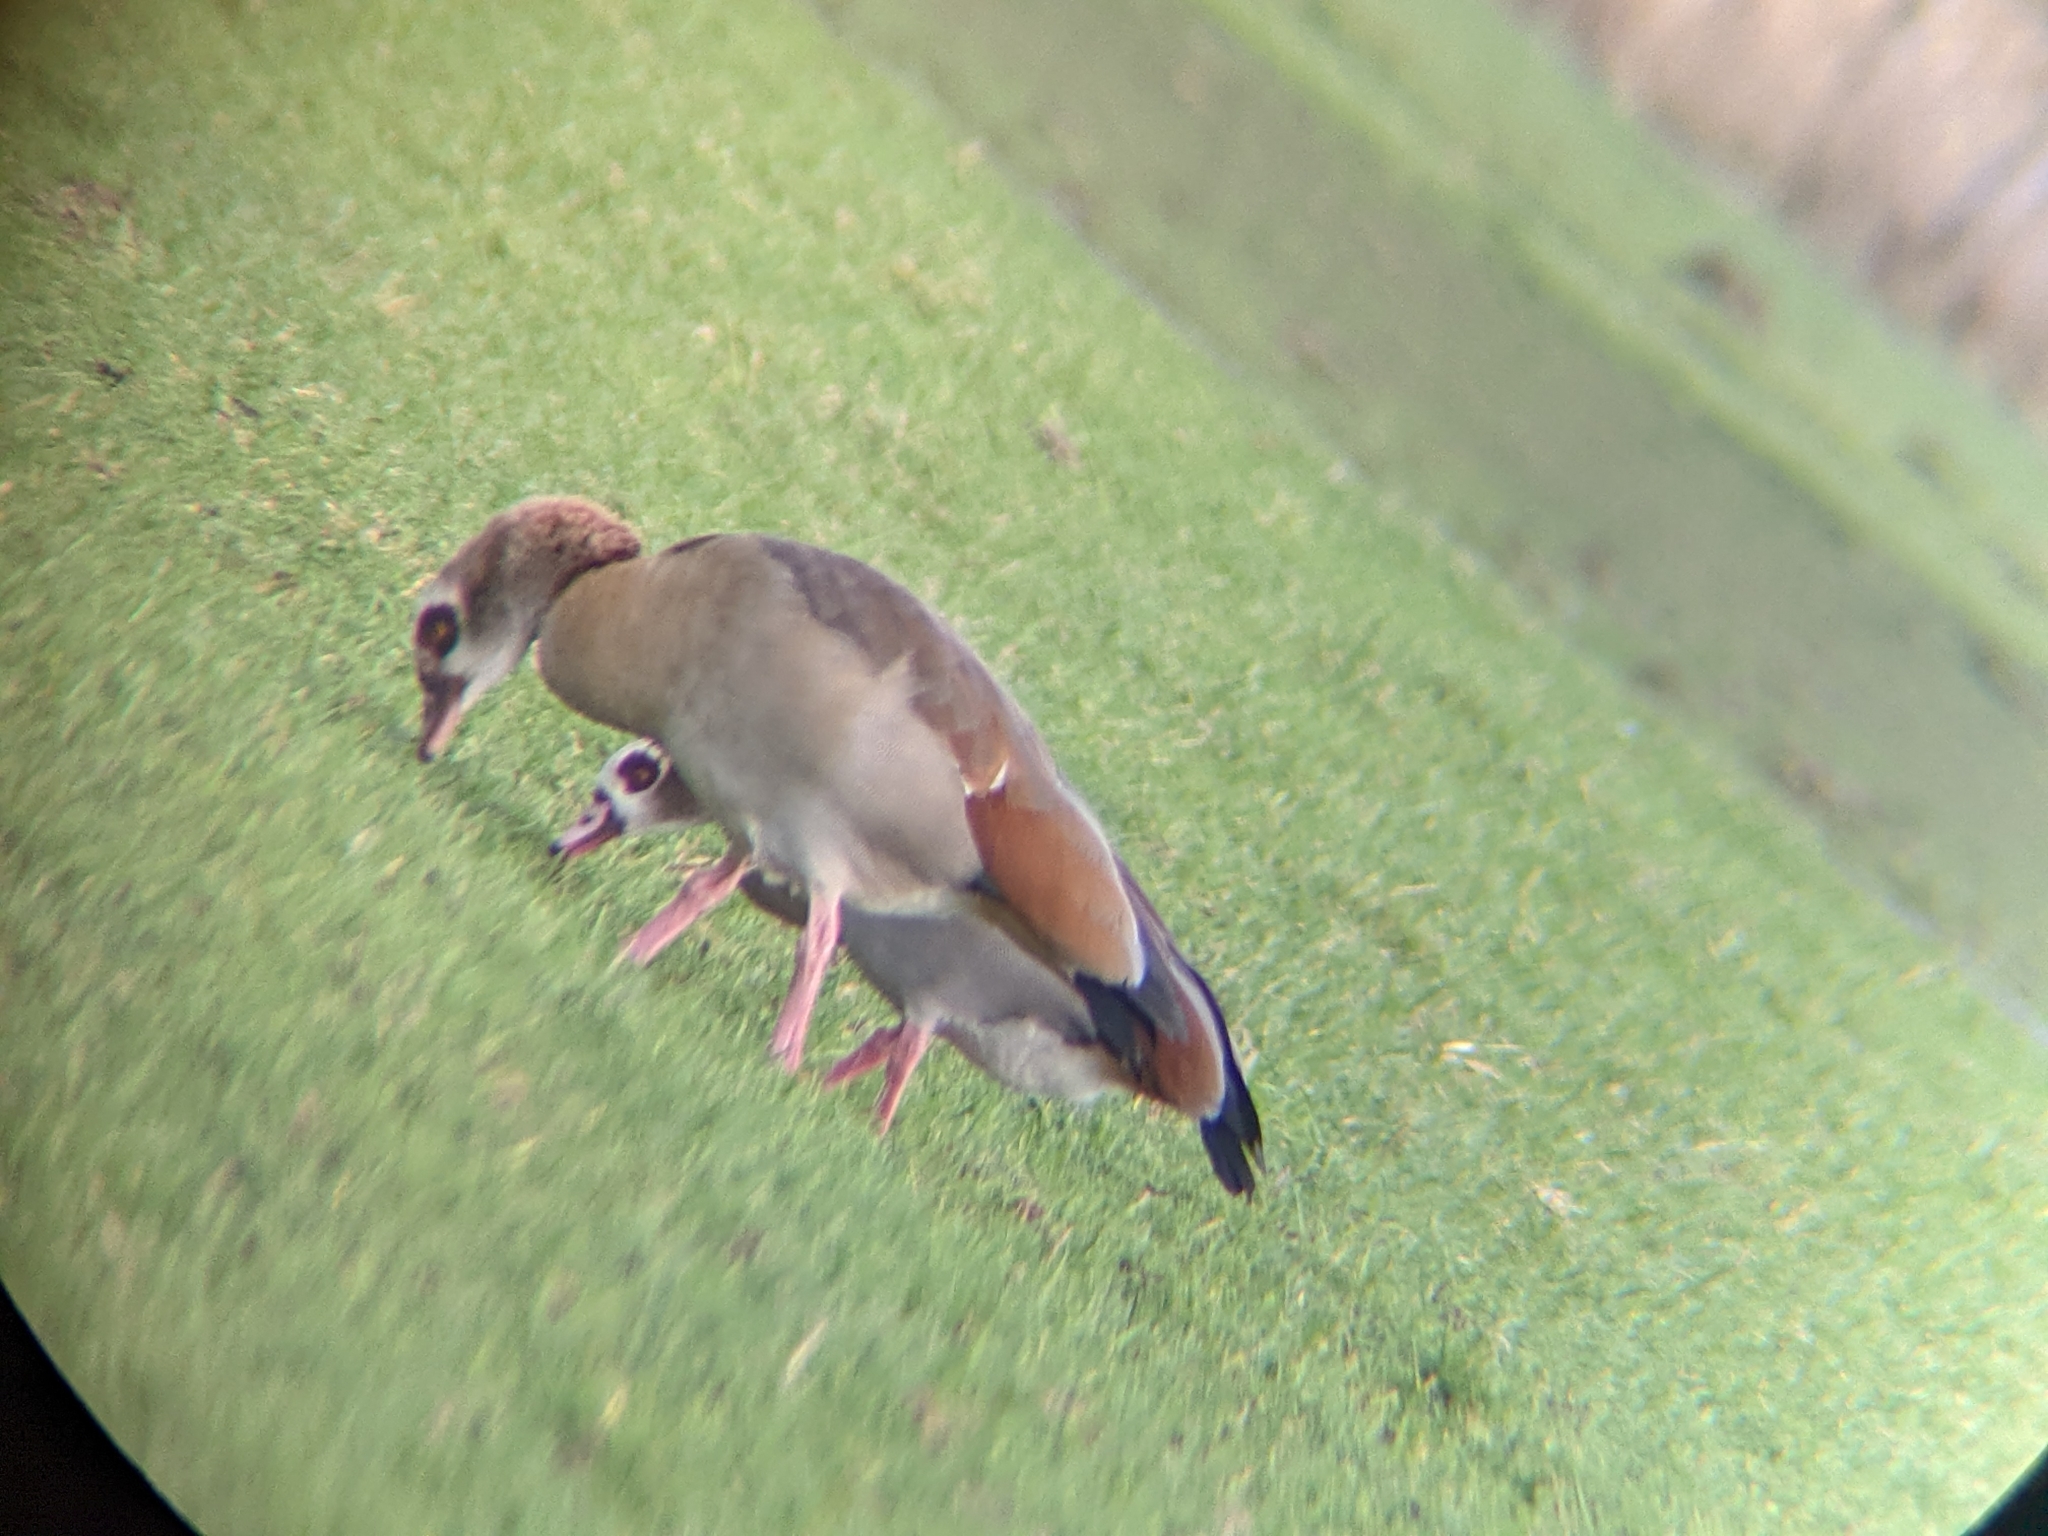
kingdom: Animalia
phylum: Chordata
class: Aves
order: Anseriformes
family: Anatidae
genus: Alopochen
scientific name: Alopochen aegyptiaca
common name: Egyptian goose
